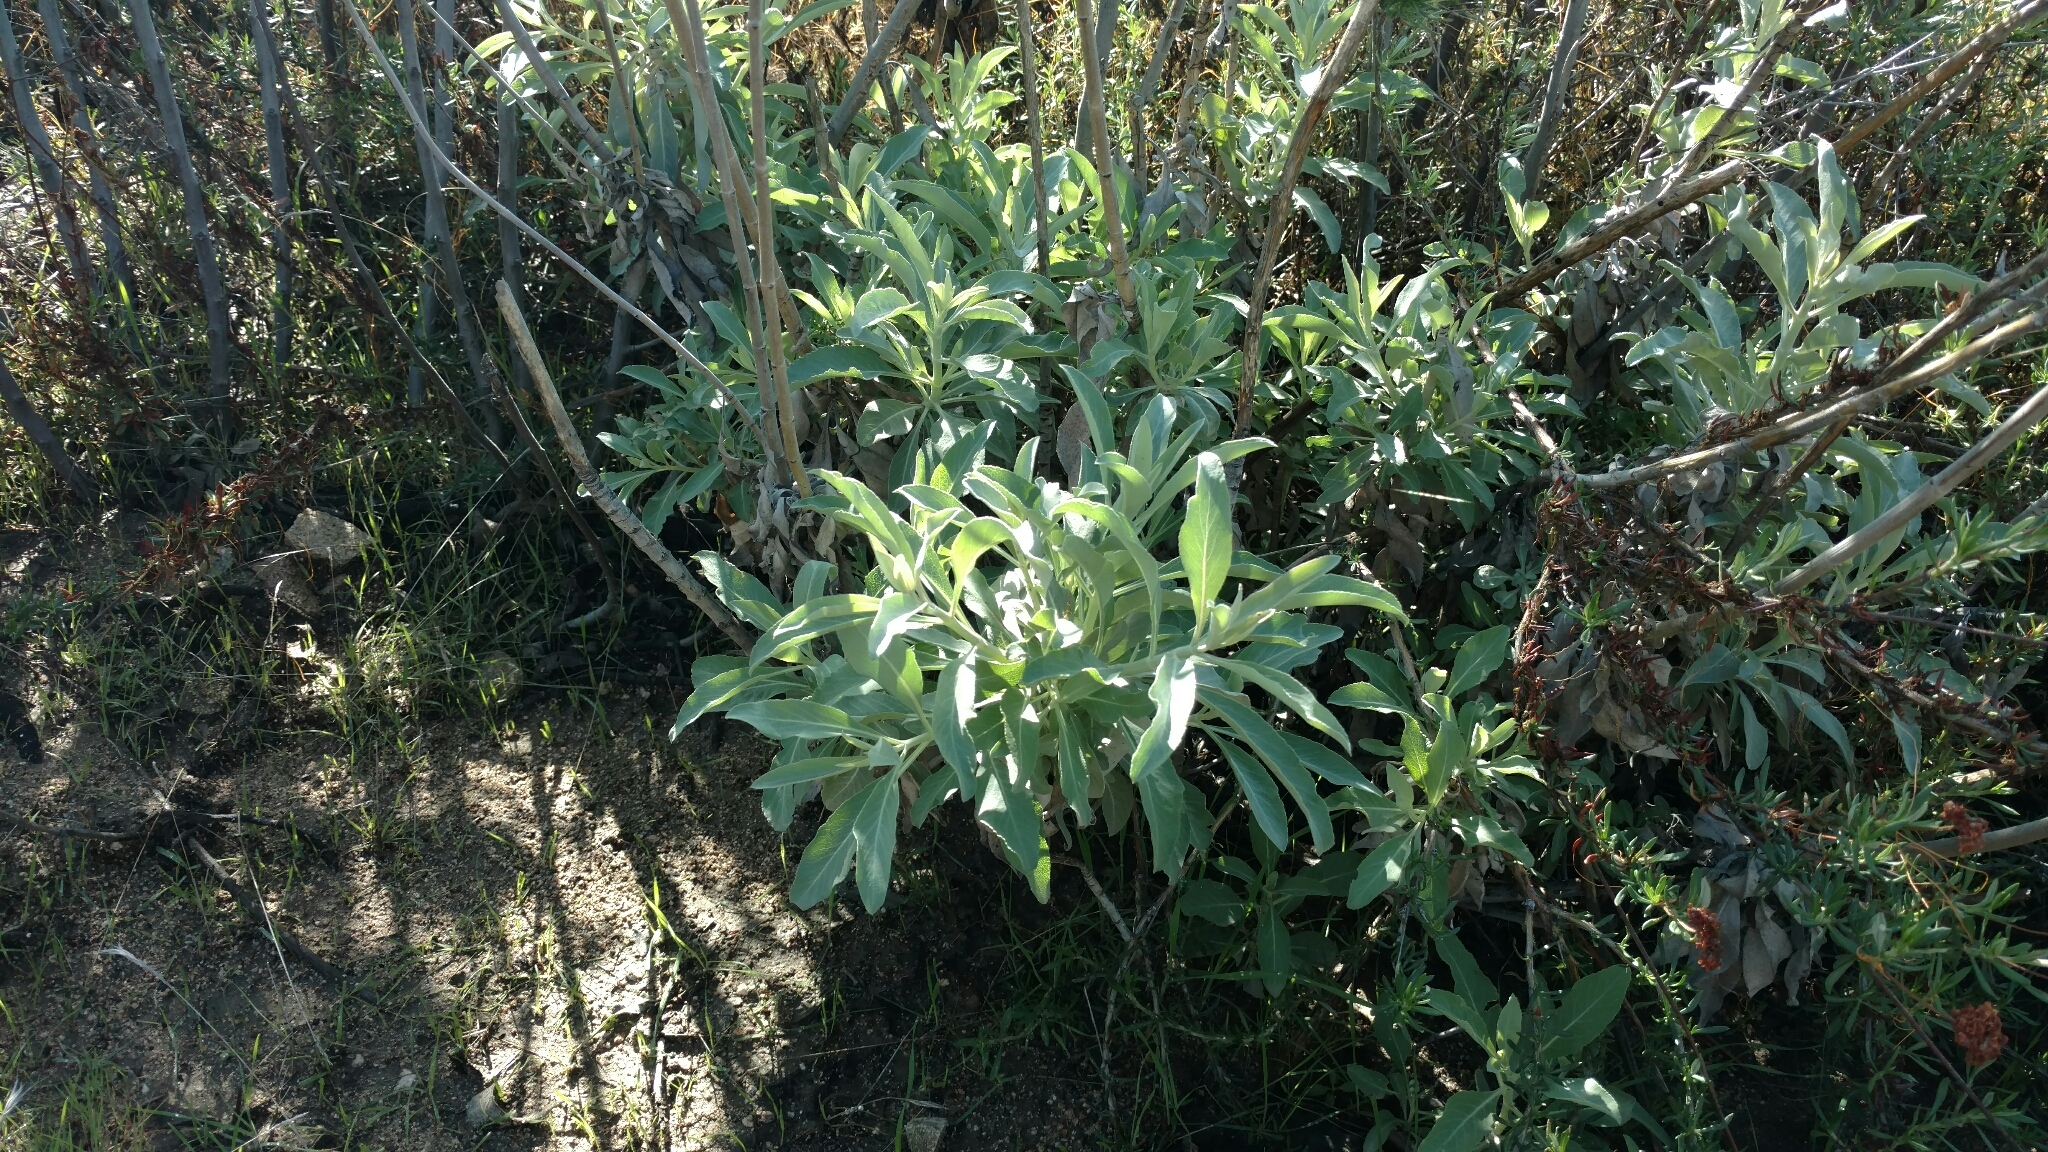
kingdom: Plantae
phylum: Tracheophyta
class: Magnoliopsida
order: Lamiales
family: Lamiaceae
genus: Salvia
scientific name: Salvia apiana
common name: White sage
